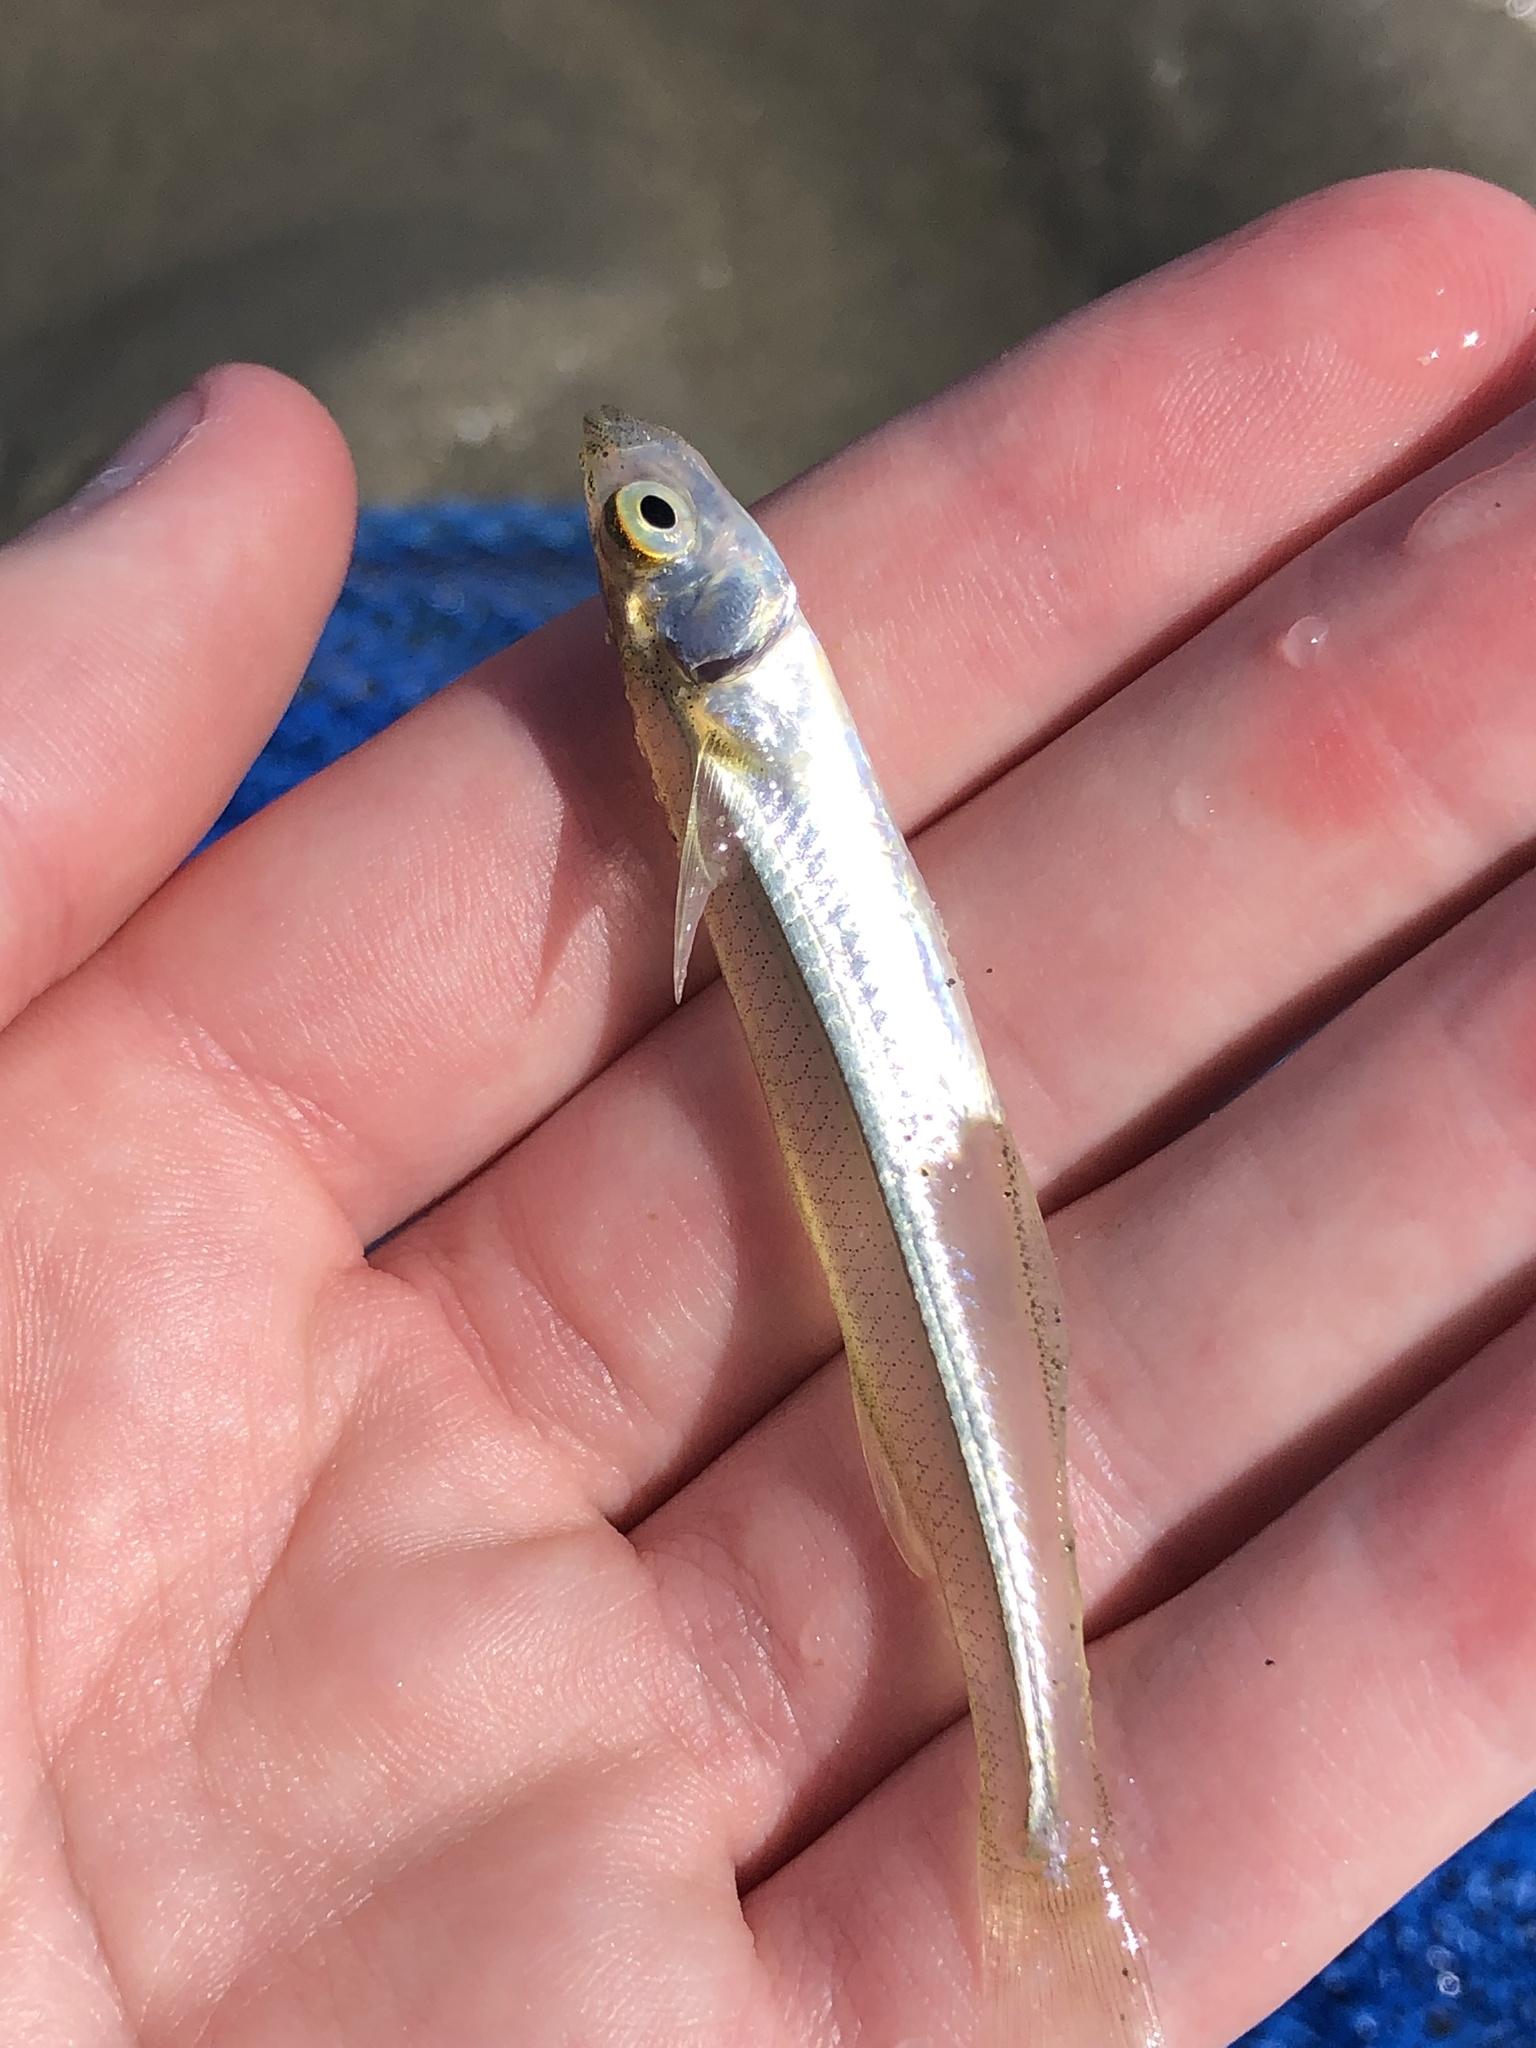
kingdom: Animalia
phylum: Chordata
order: Atheriniformes
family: Atherinopsidae
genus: Menidia
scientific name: Menidia menidia
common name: Atlantic silverside
